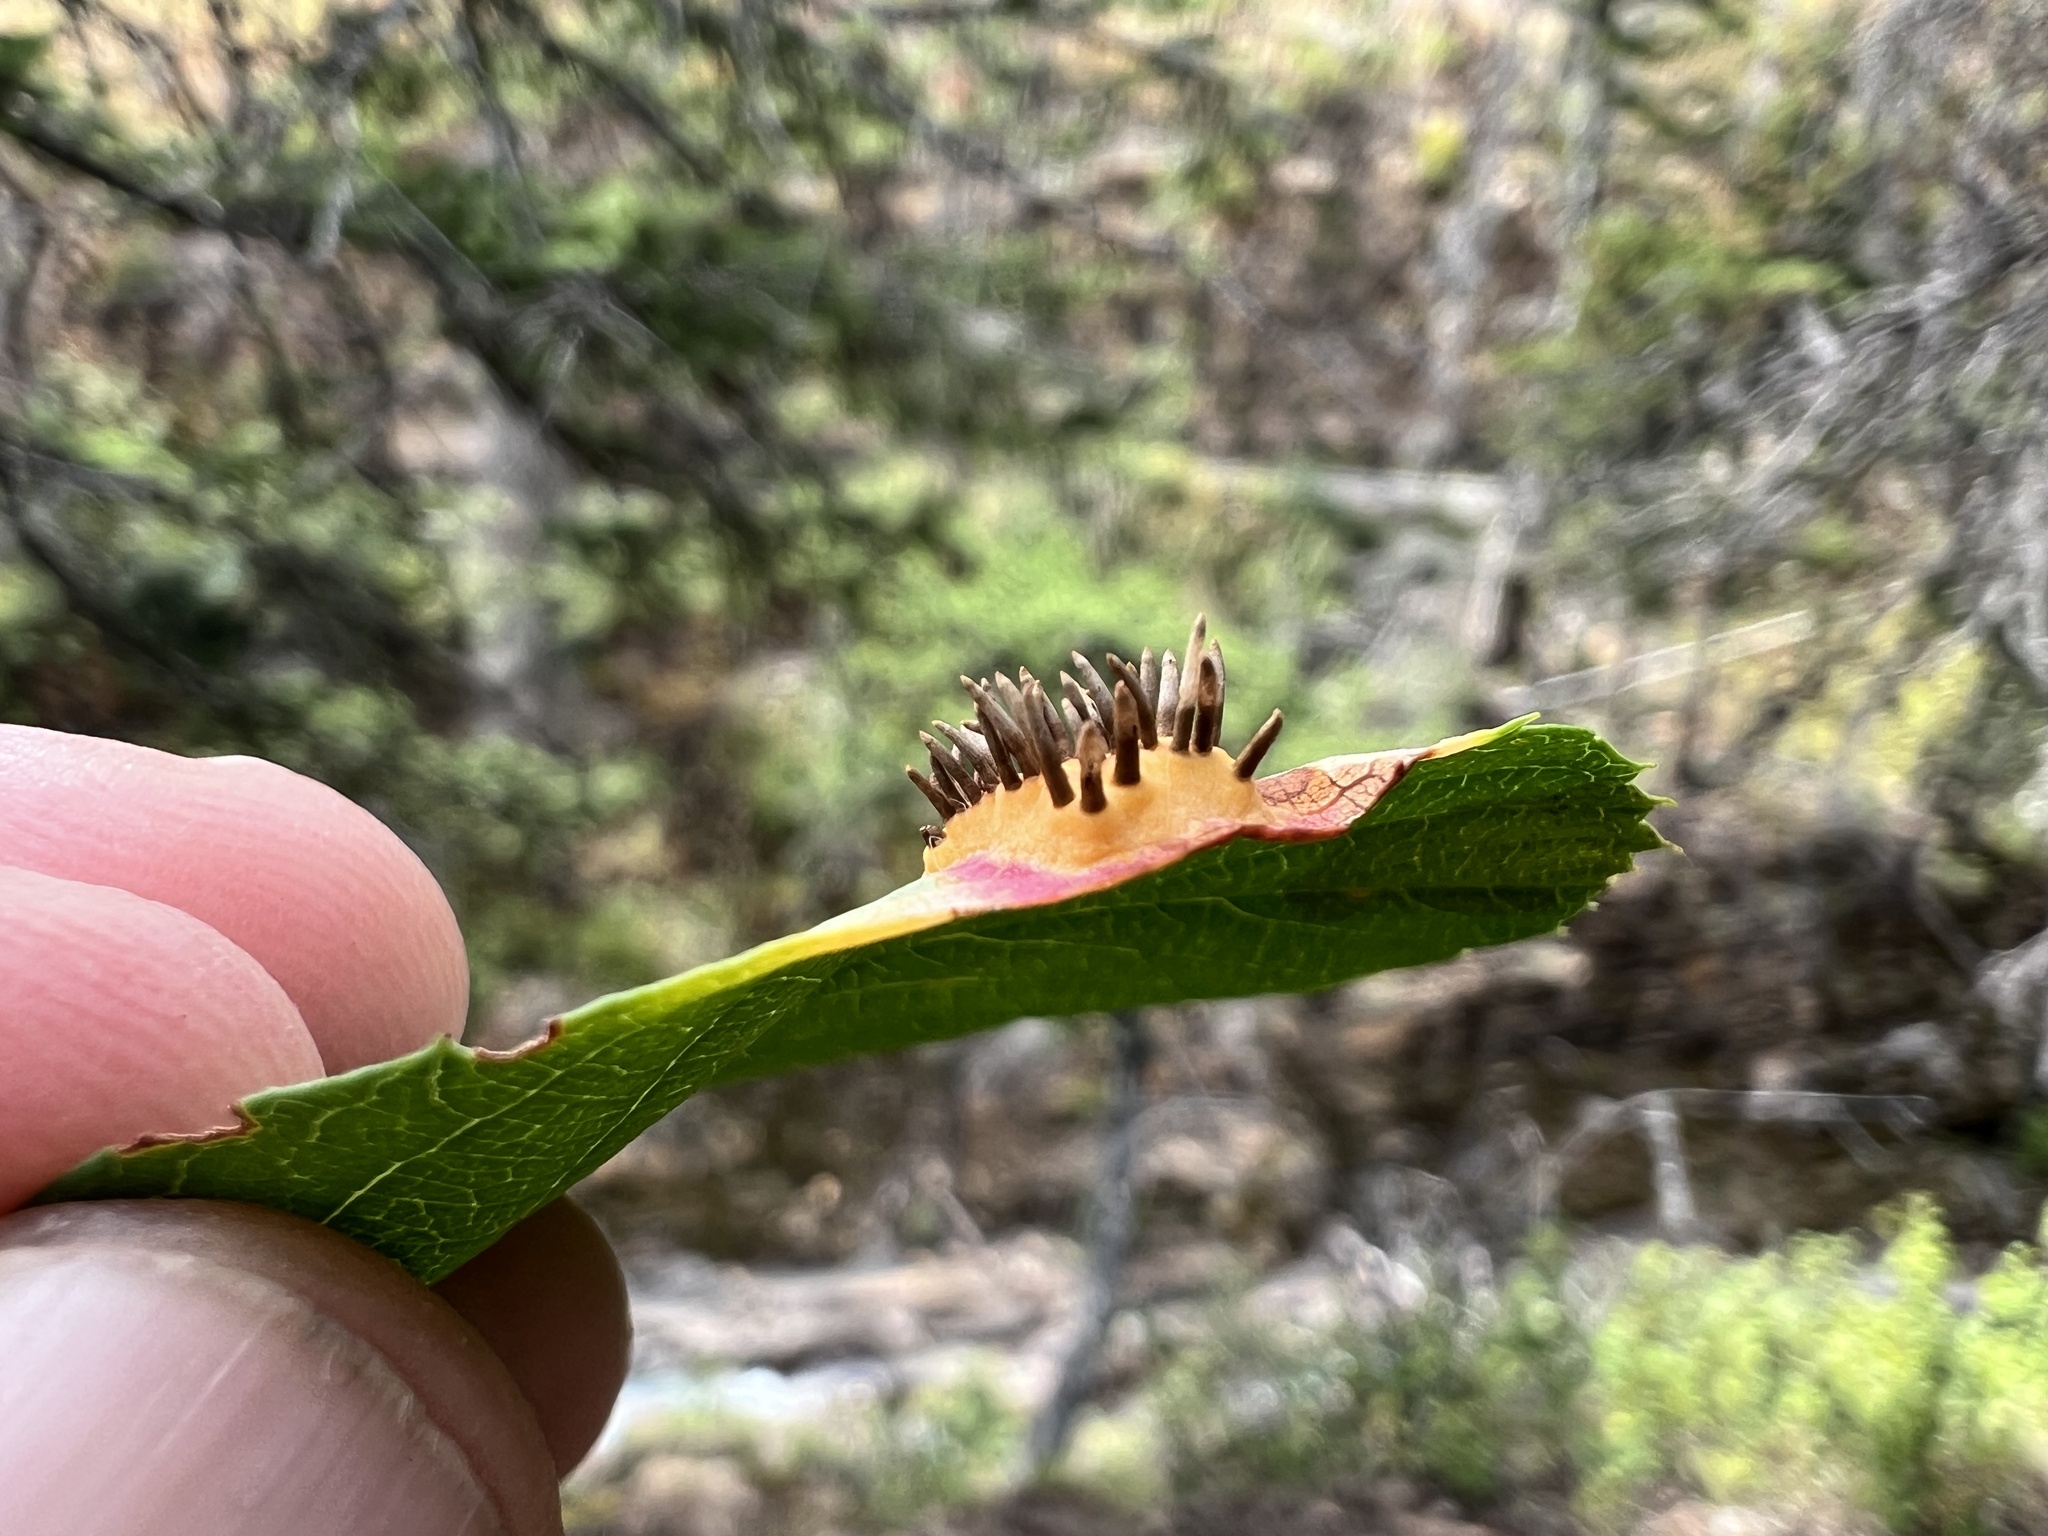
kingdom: Fungi
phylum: Basidiomycota
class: Pucciniomycetes
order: Pucciniales
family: Gymnosporangiaceae
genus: Gymnosporangium
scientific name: Gymnosporangium nelsonii
